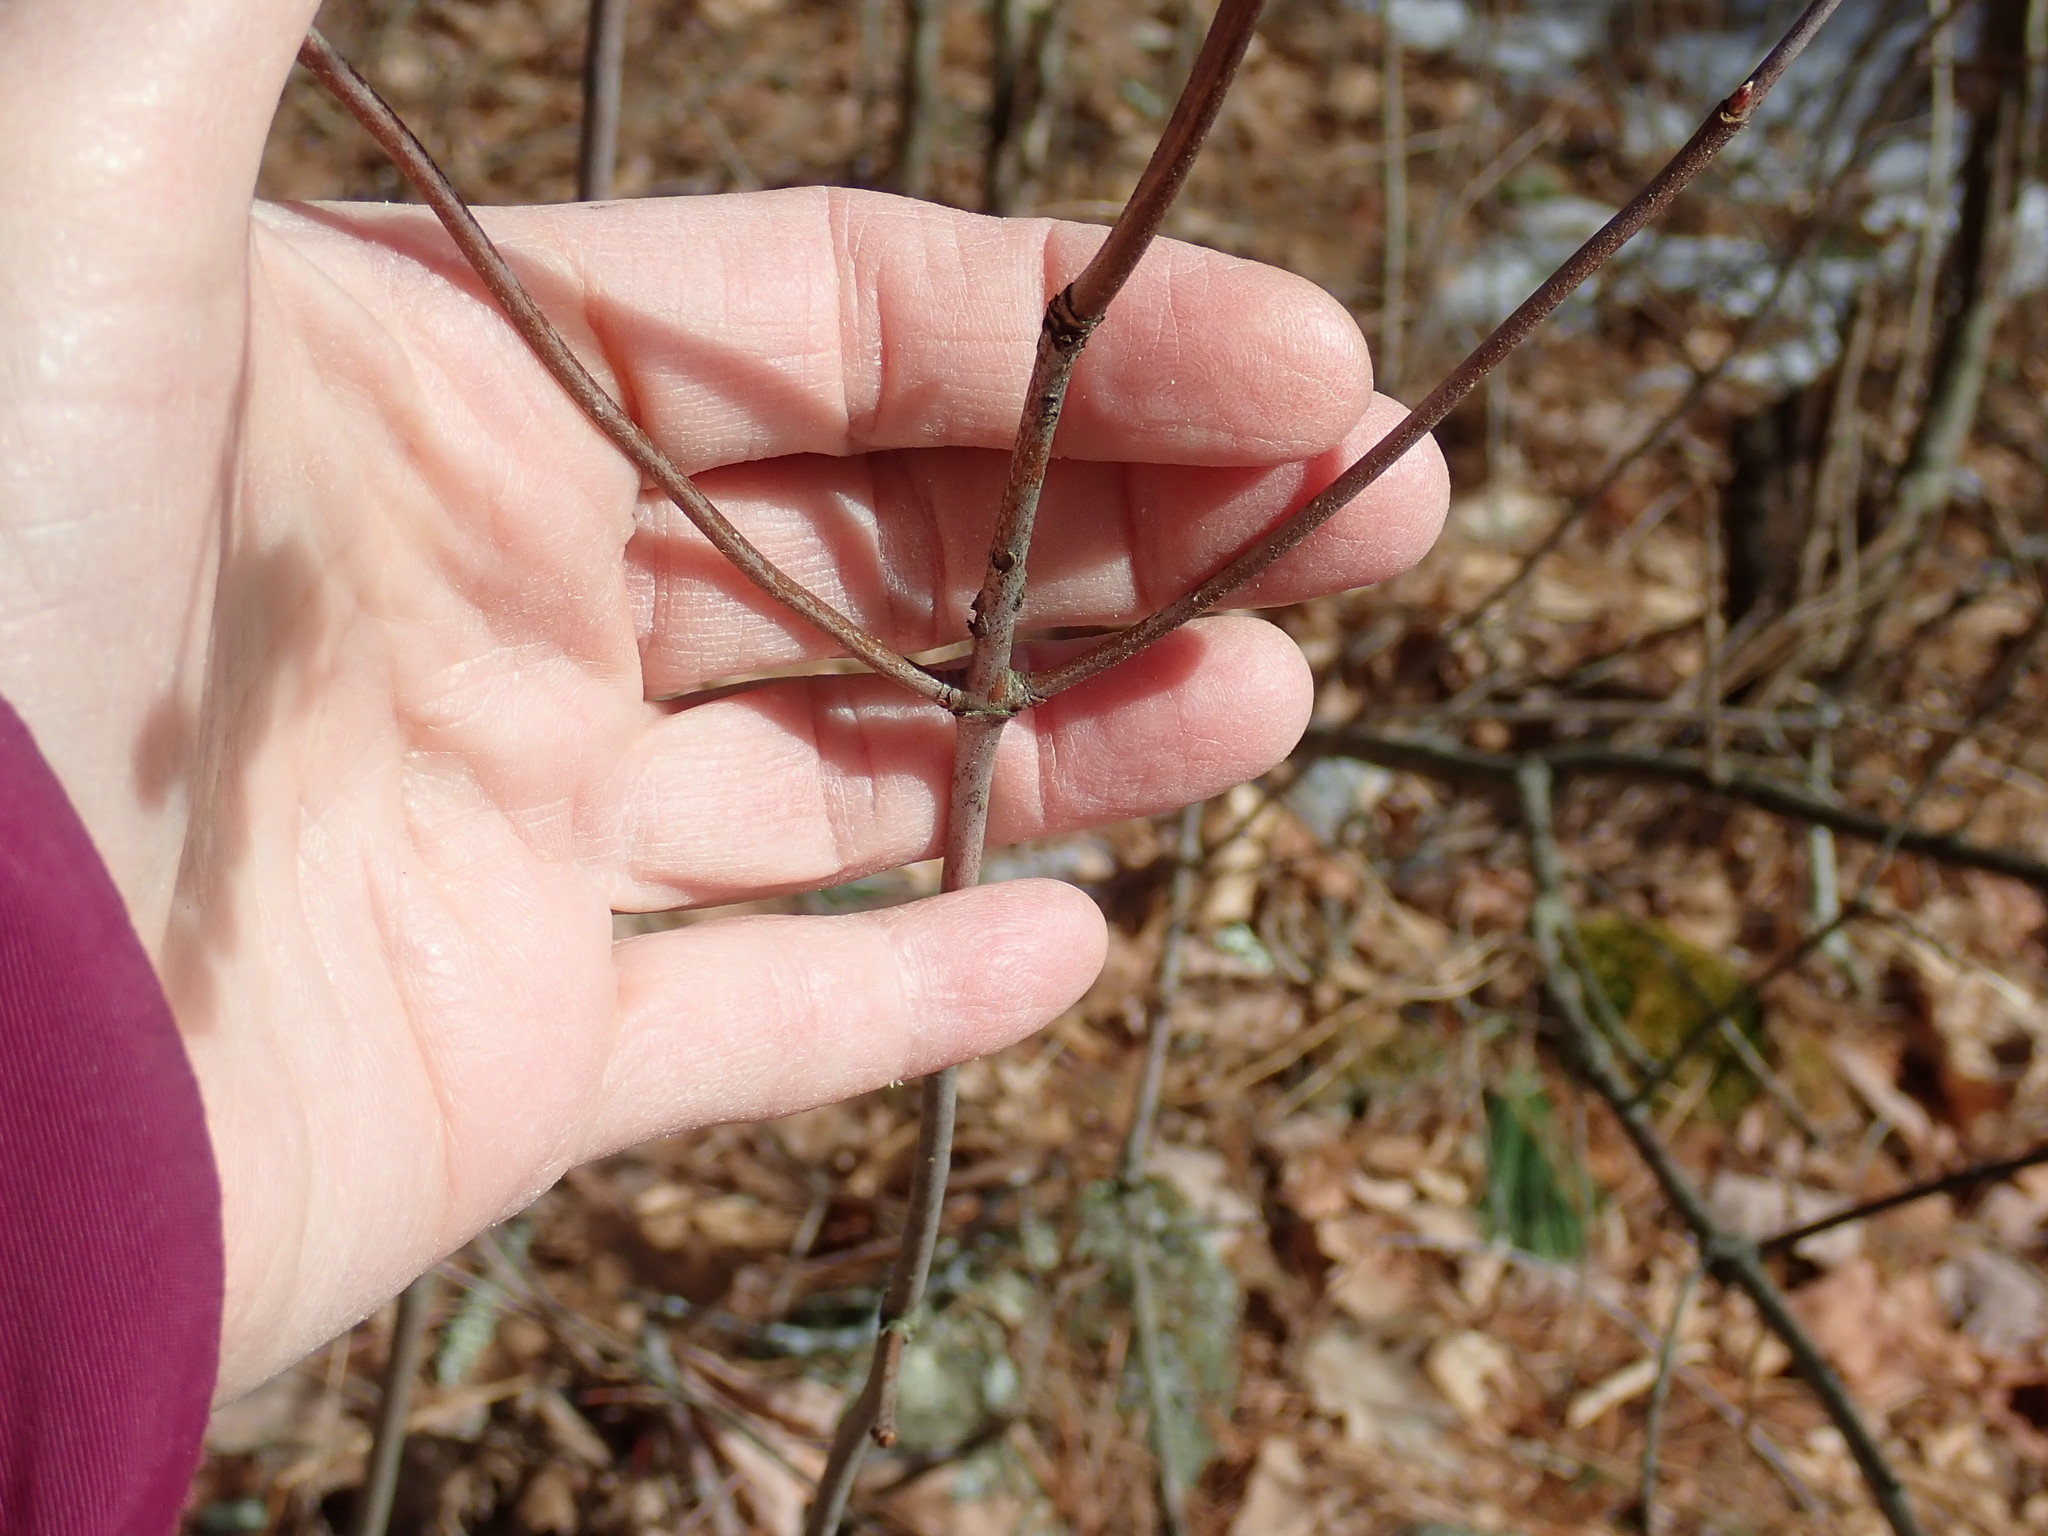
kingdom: Plantae
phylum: Tracheophyta
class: Magnoliopsida
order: Dipsacales
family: Viburnaceae
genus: Viburnum
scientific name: Viburnum acerifolium
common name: Dockmackie
